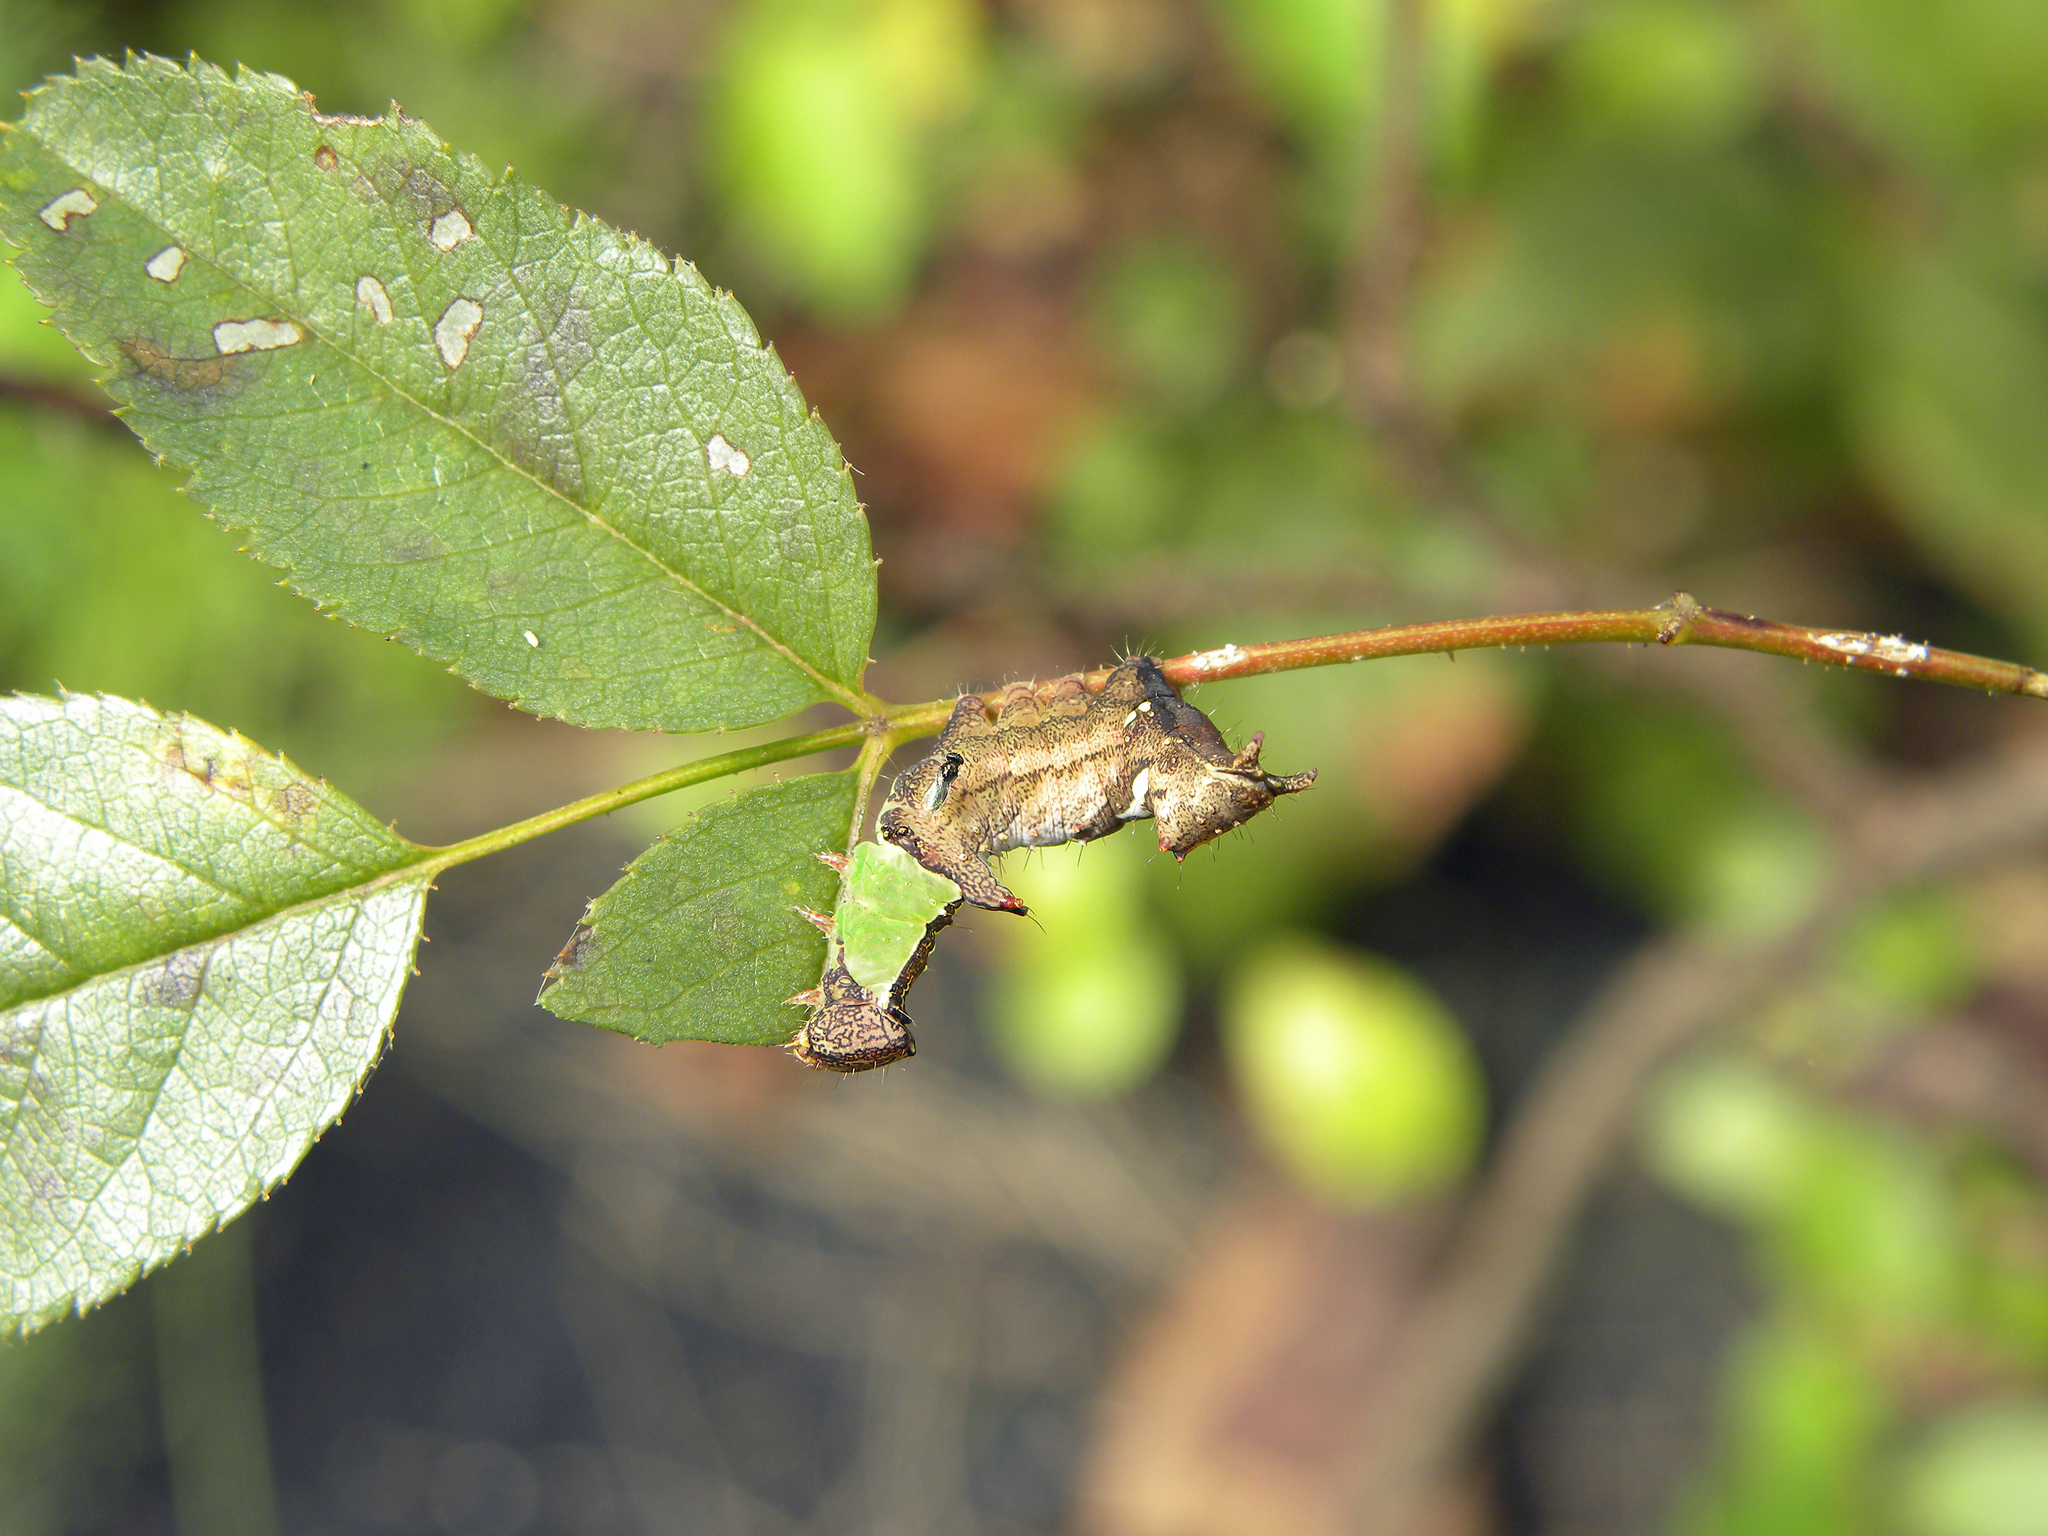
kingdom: Animalia
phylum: Arthropoda
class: Insecta
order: Lepidoptera
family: Notodontidae
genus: Schizura
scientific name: Schizura
